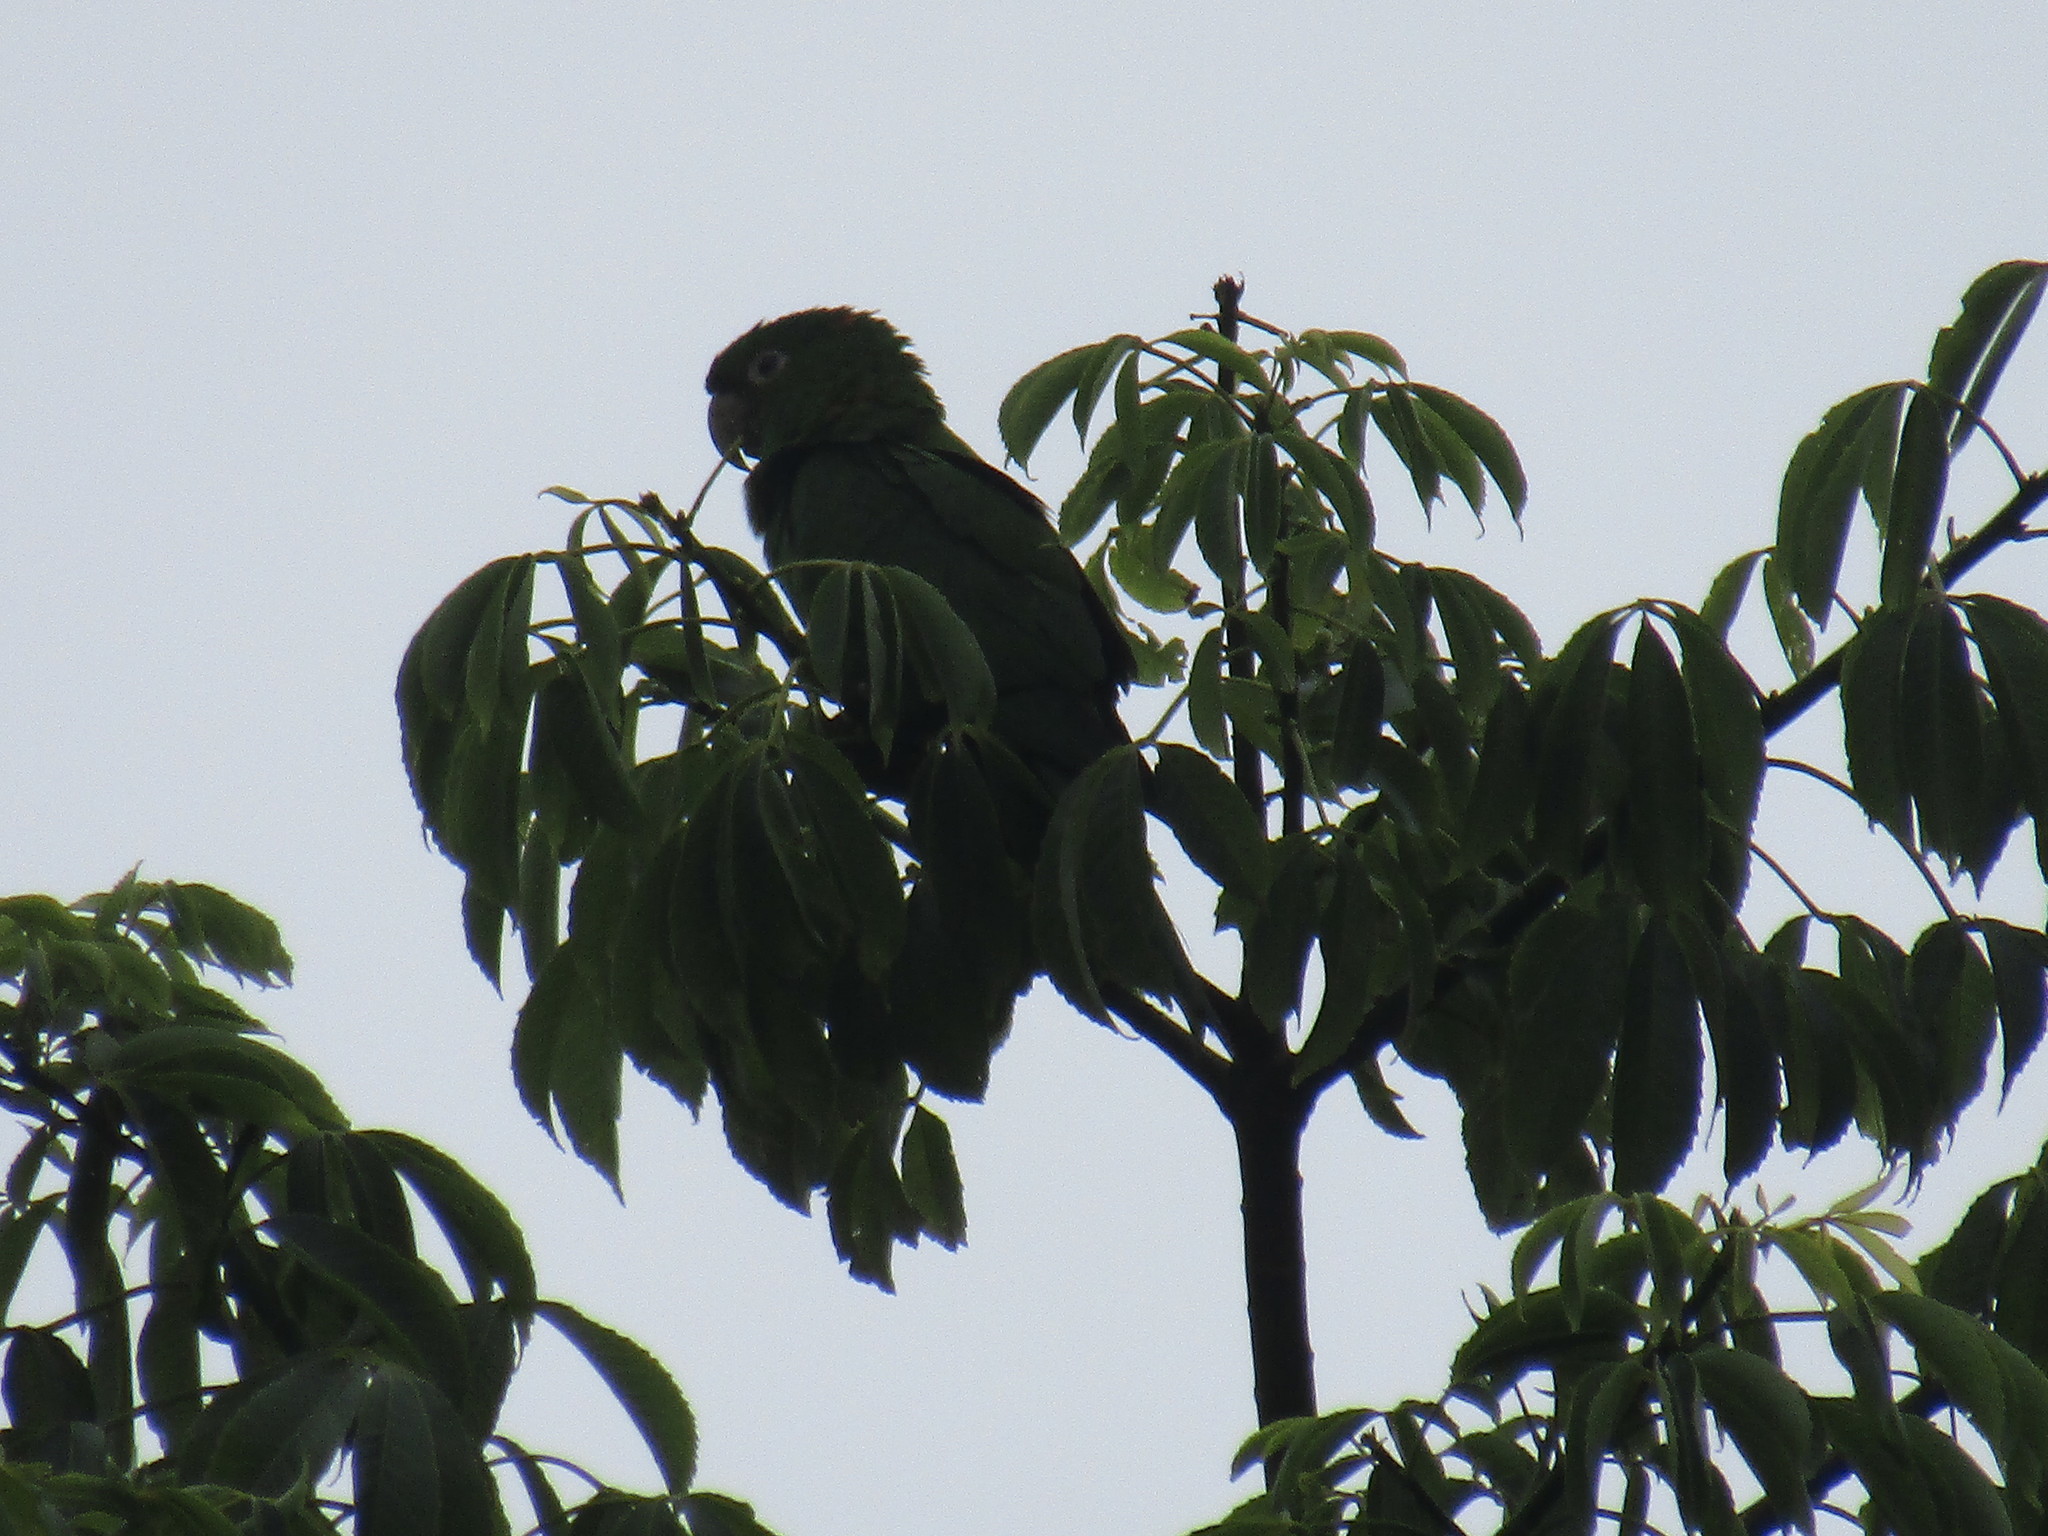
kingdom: Animalia
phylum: Chordata
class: Aves
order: Psittaciformes
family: Psittacidae
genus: Aratinga
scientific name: Aratinga leucophthalma
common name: White-eyed parakeet
